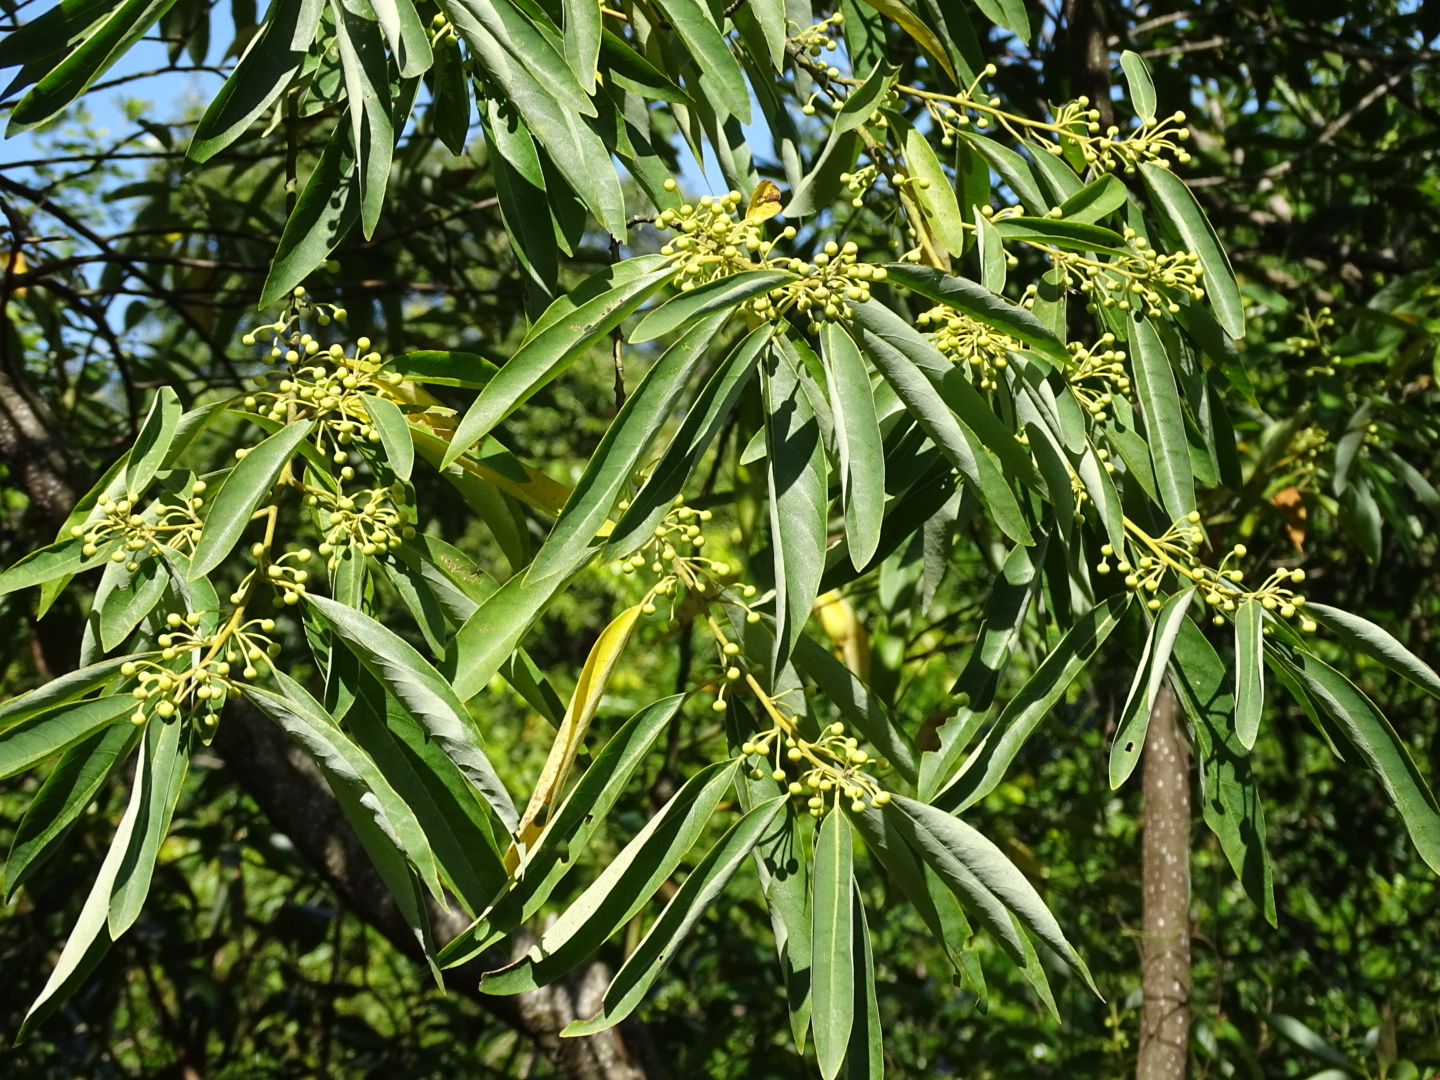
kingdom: Plantae
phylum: Tracheophyta
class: Magnoliopsida
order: Laurales
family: Lauraceae
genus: Litsea
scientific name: Litsea cubeba
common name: Mountain-pepper
